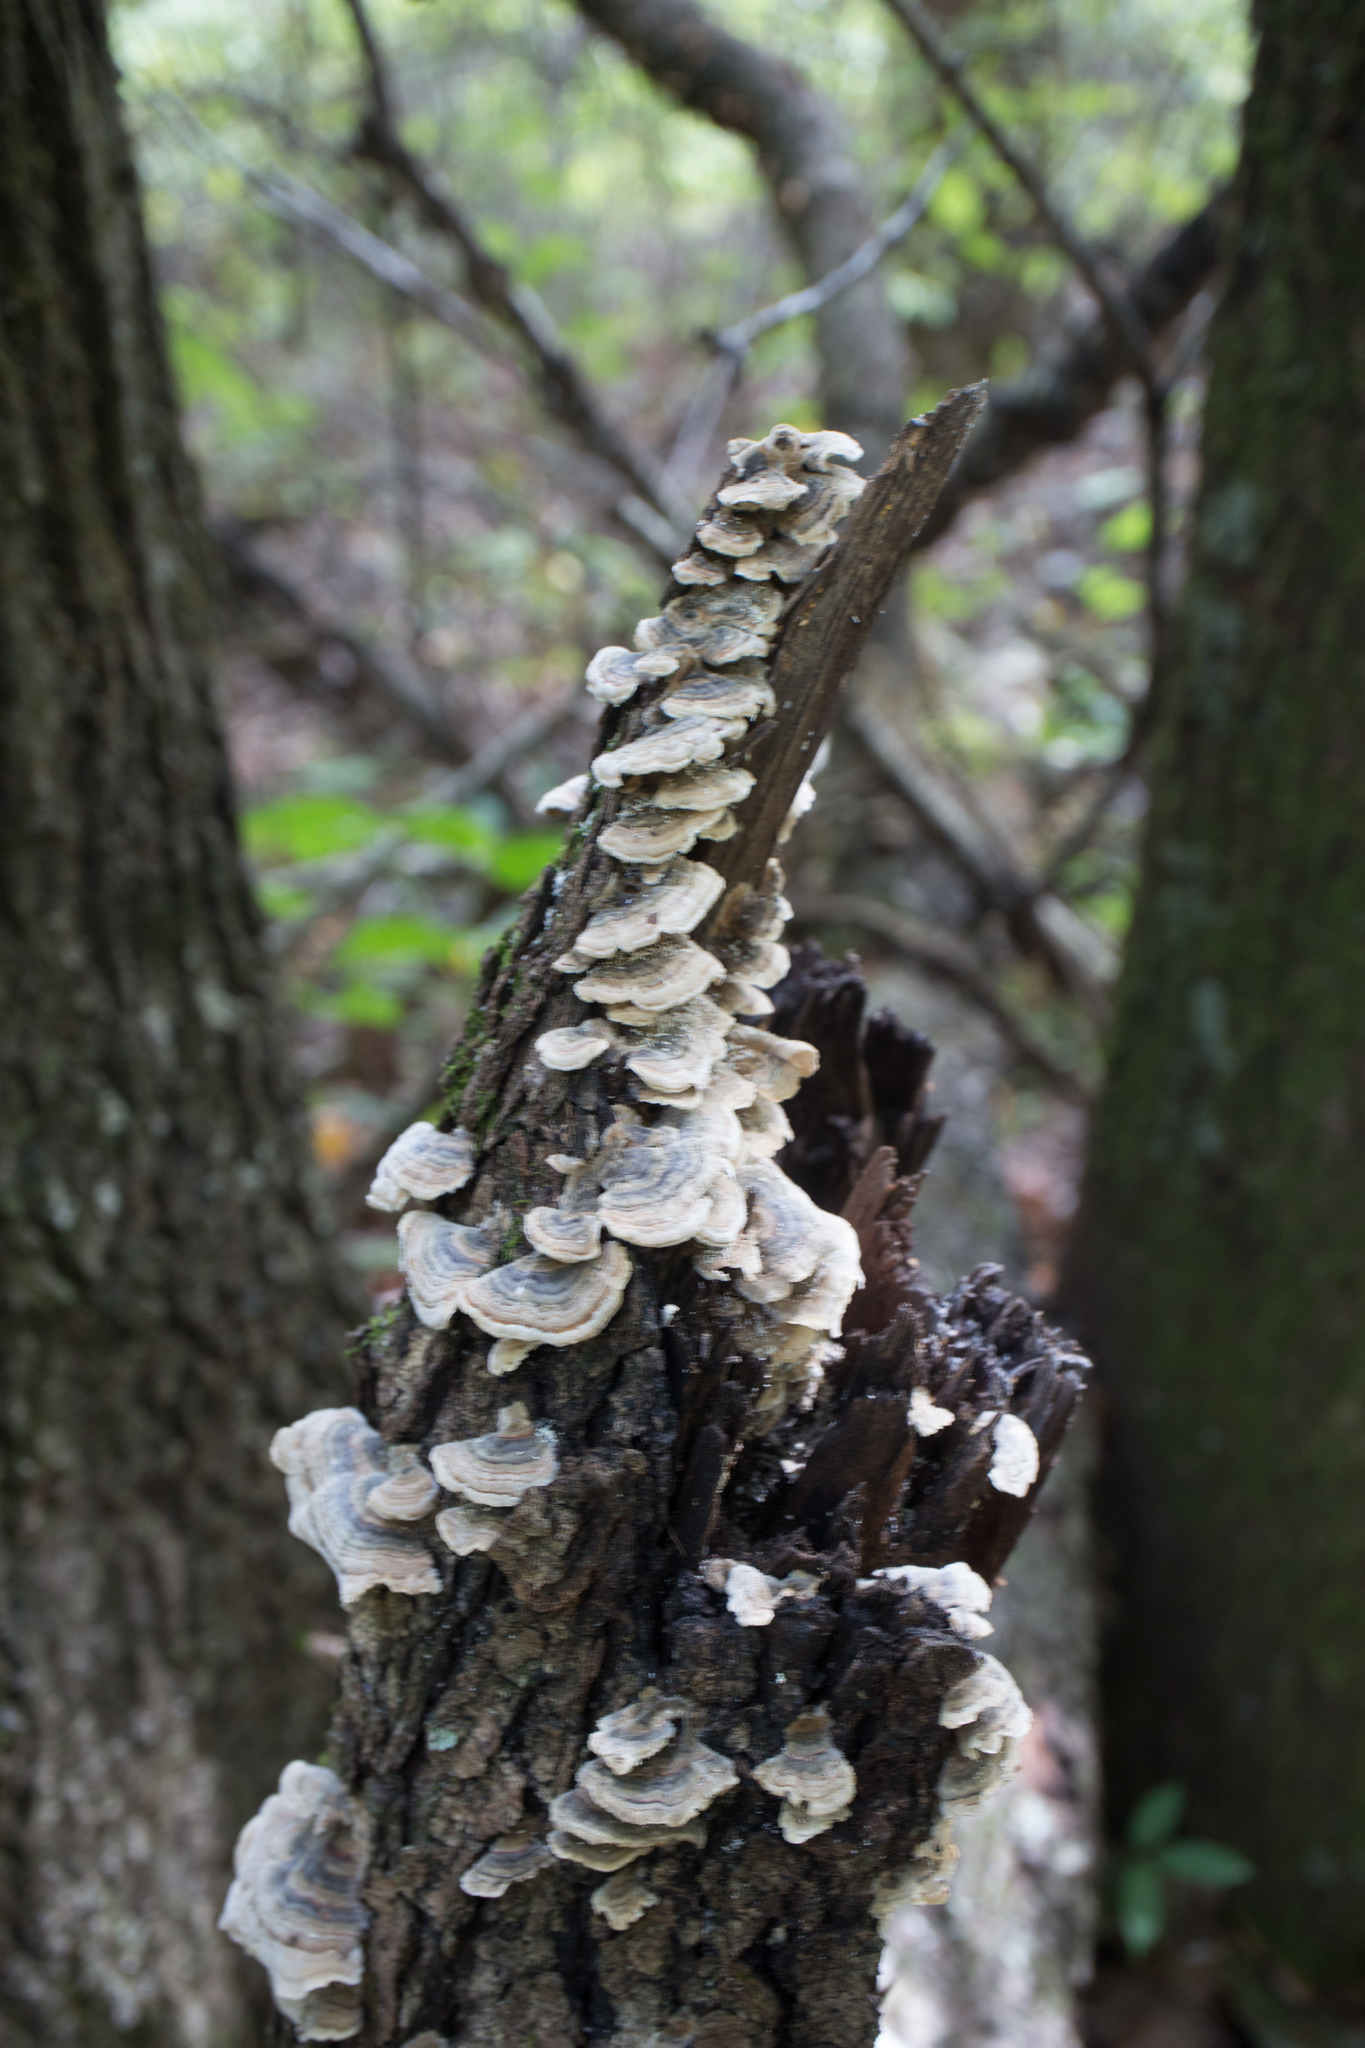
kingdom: Fungi
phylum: Basidiomycota
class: Agaricomycetes
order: Polyporales
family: Polyporaceae
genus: Trametes
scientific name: Trametes versicolor
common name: Turkeytail
